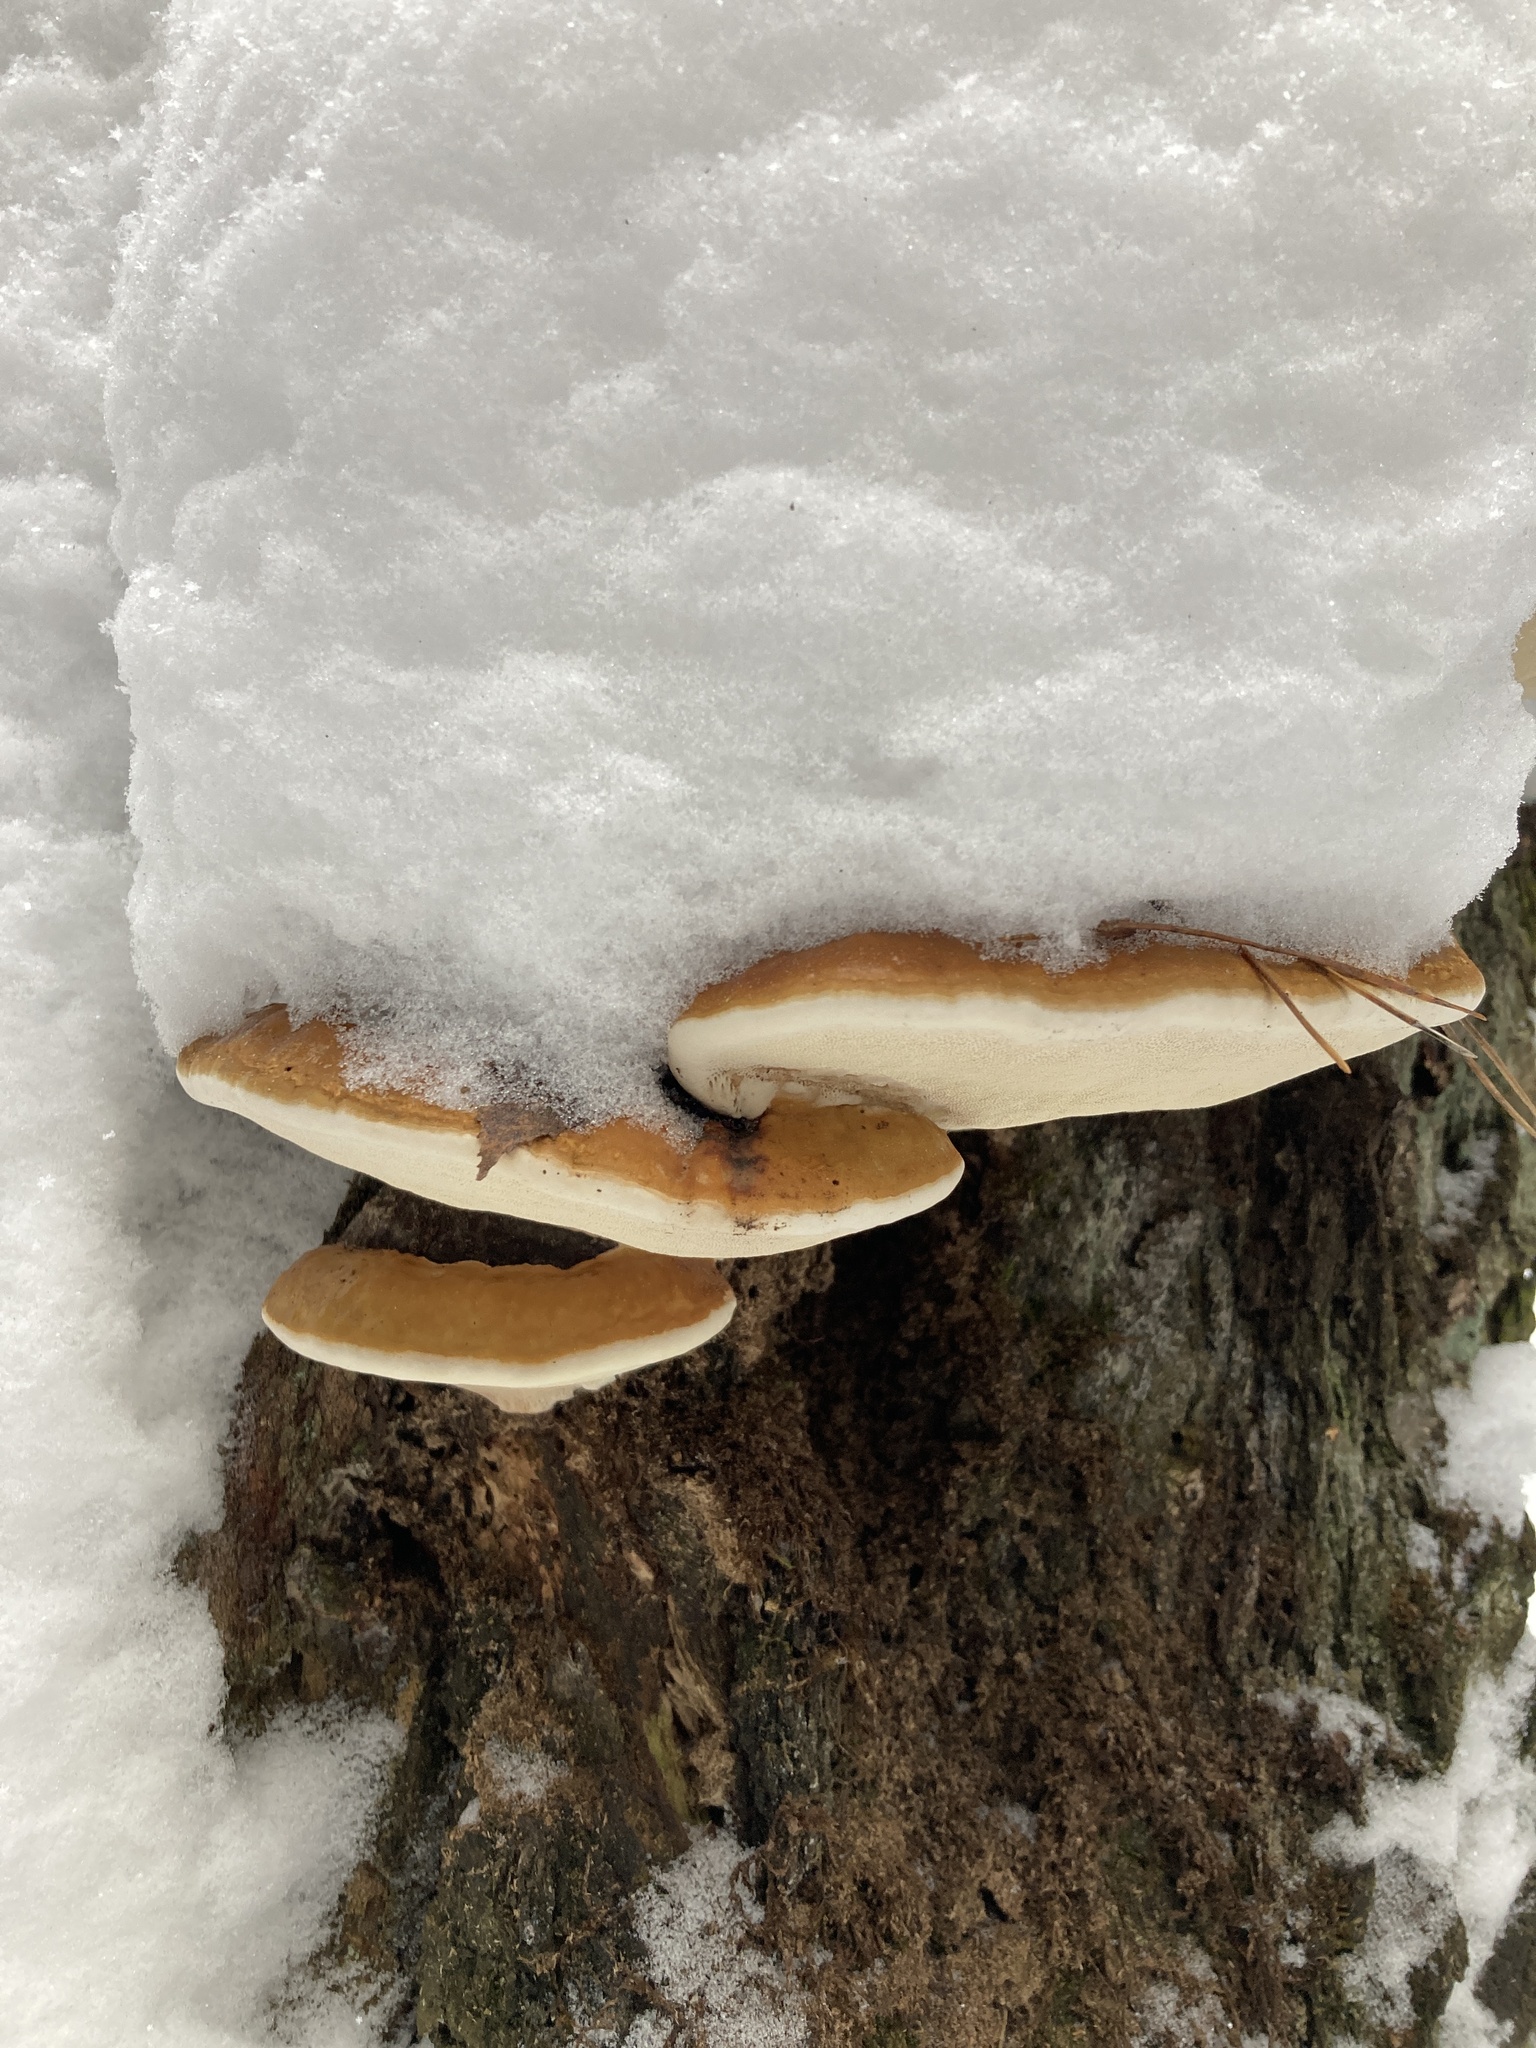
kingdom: Fungi
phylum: Basidiomycota
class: Agaricomycetes
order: Polyporales
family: Fomitopsidaceae
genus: Fomitopsis
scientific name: Fomitopsis pinicola
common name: Red-belted bracket
